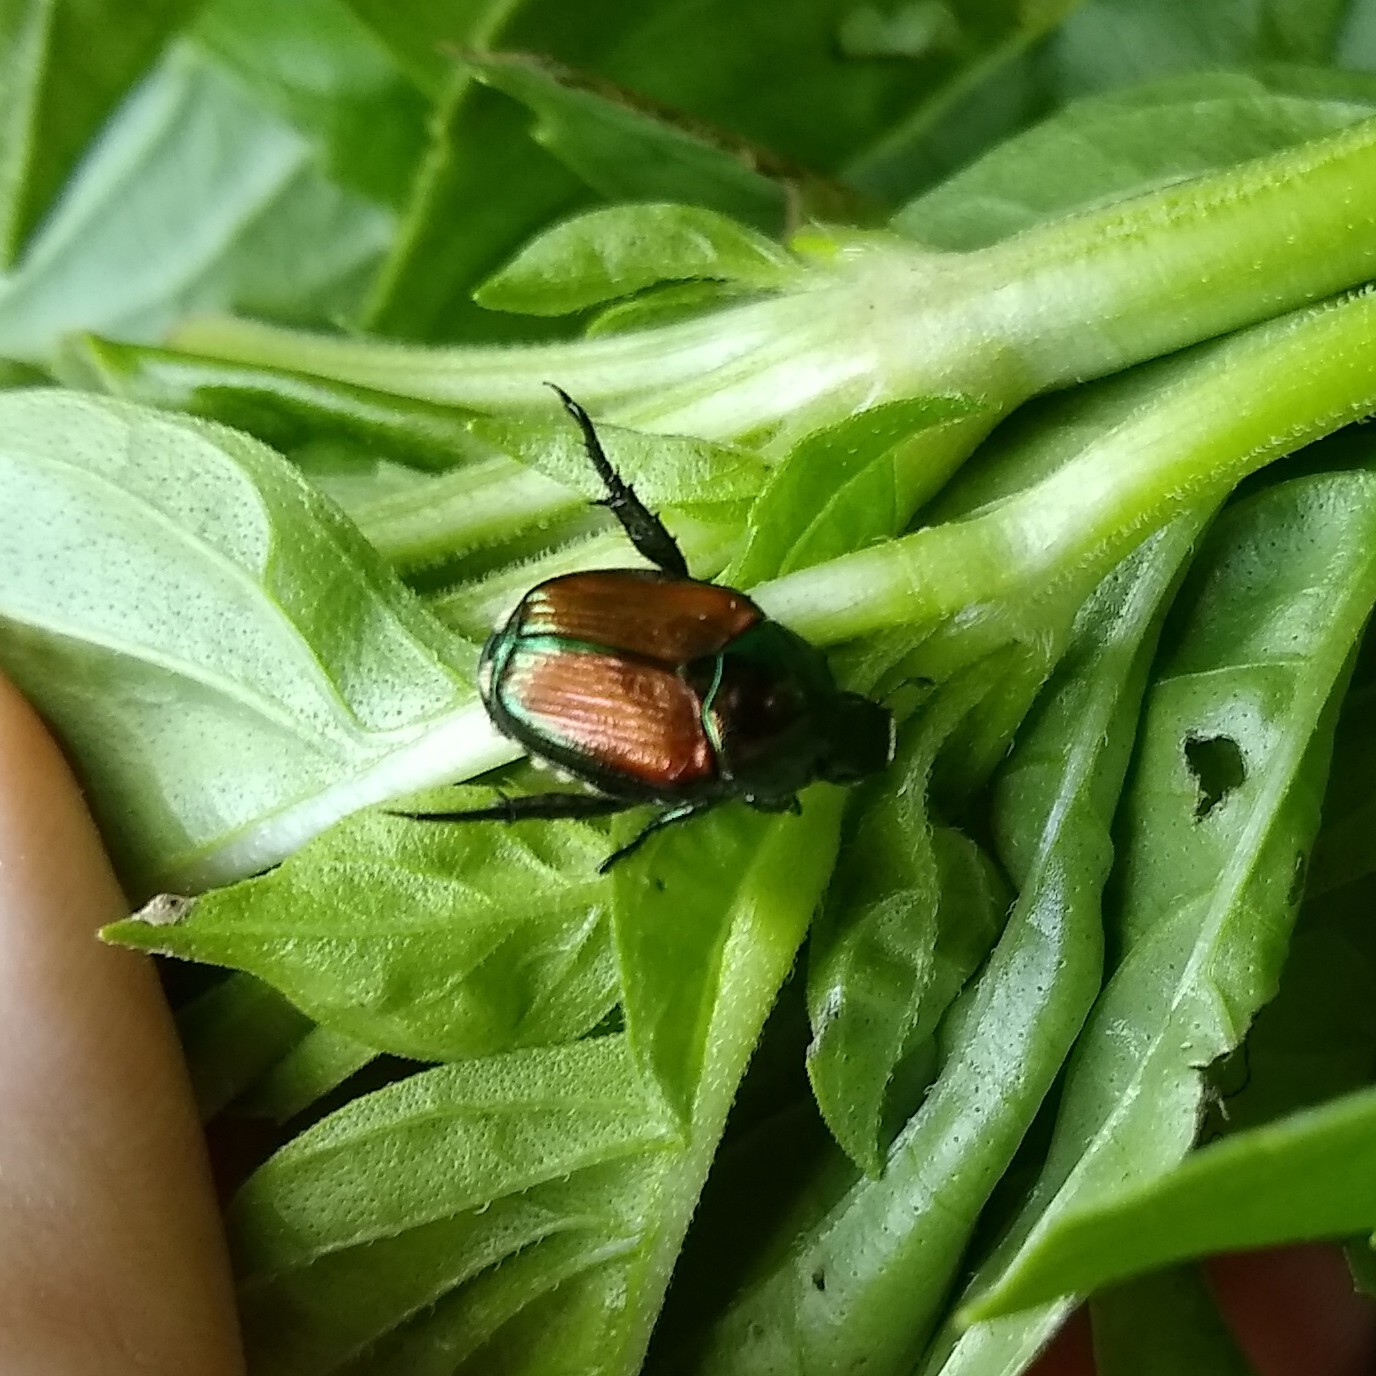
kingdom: Animalia
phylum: Arthropoda
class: Insecta
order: Coleoptera
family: Scarabaeidae
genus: Popillia
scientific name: Popillia japonica
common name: Japanese beetle
